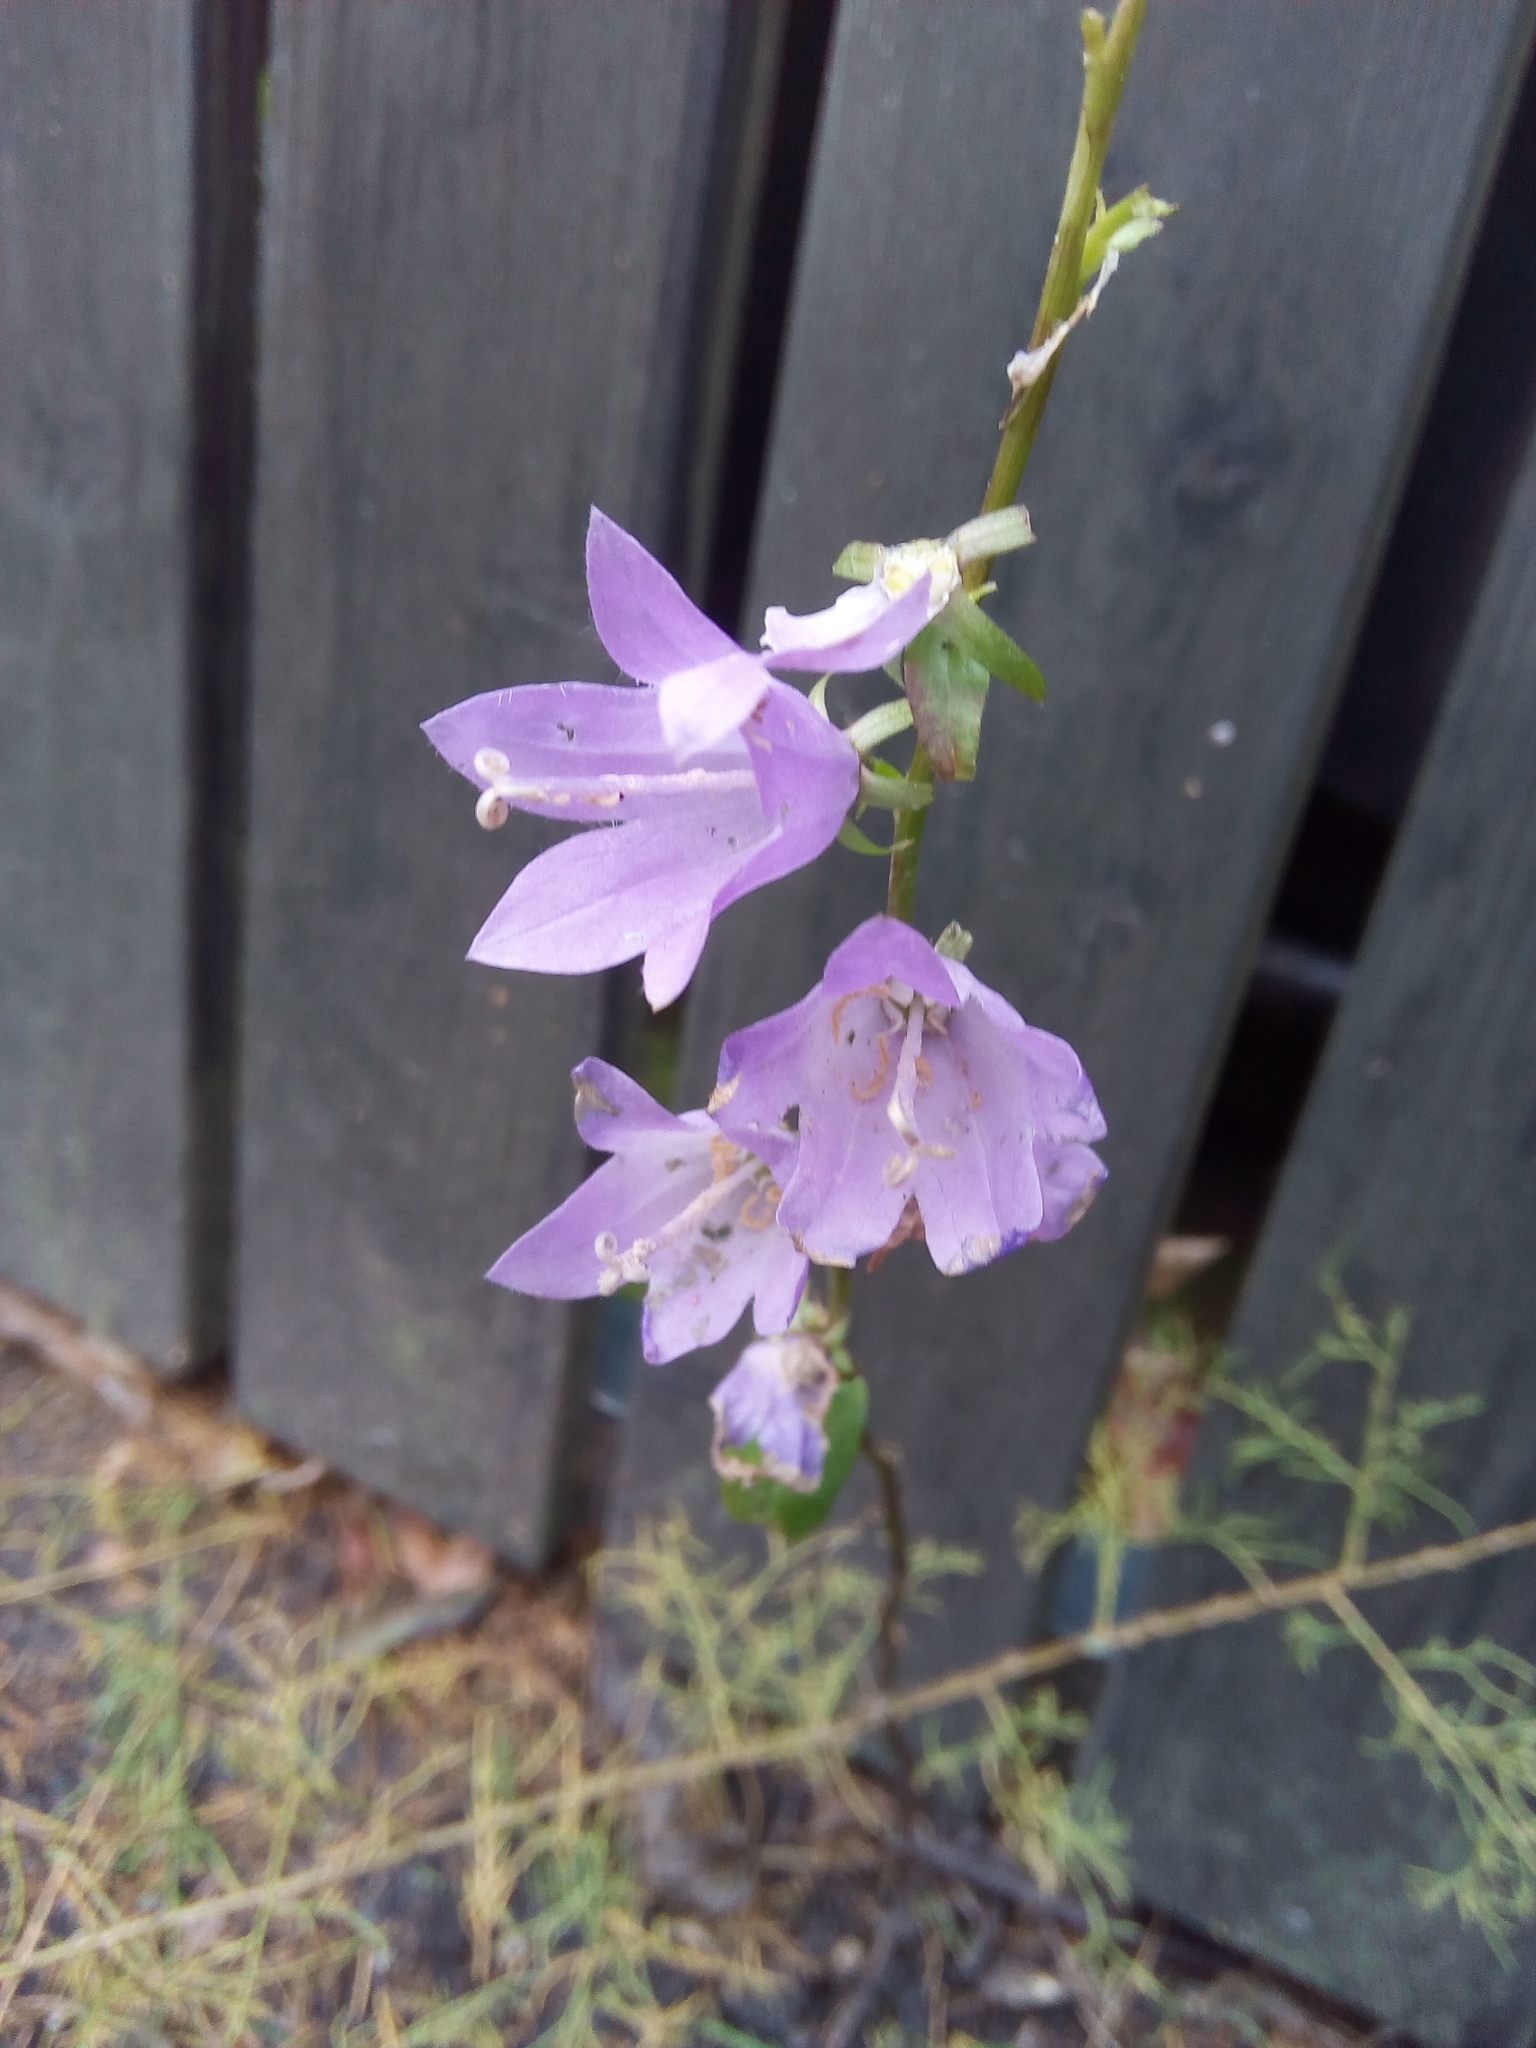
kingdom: Plantae
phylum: Tracheophyta
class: Magnoliopsida
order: Asterales
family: Campanulaceae
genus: Campanula
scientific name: Campanula rapunculoides
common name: Creeping bellflower
